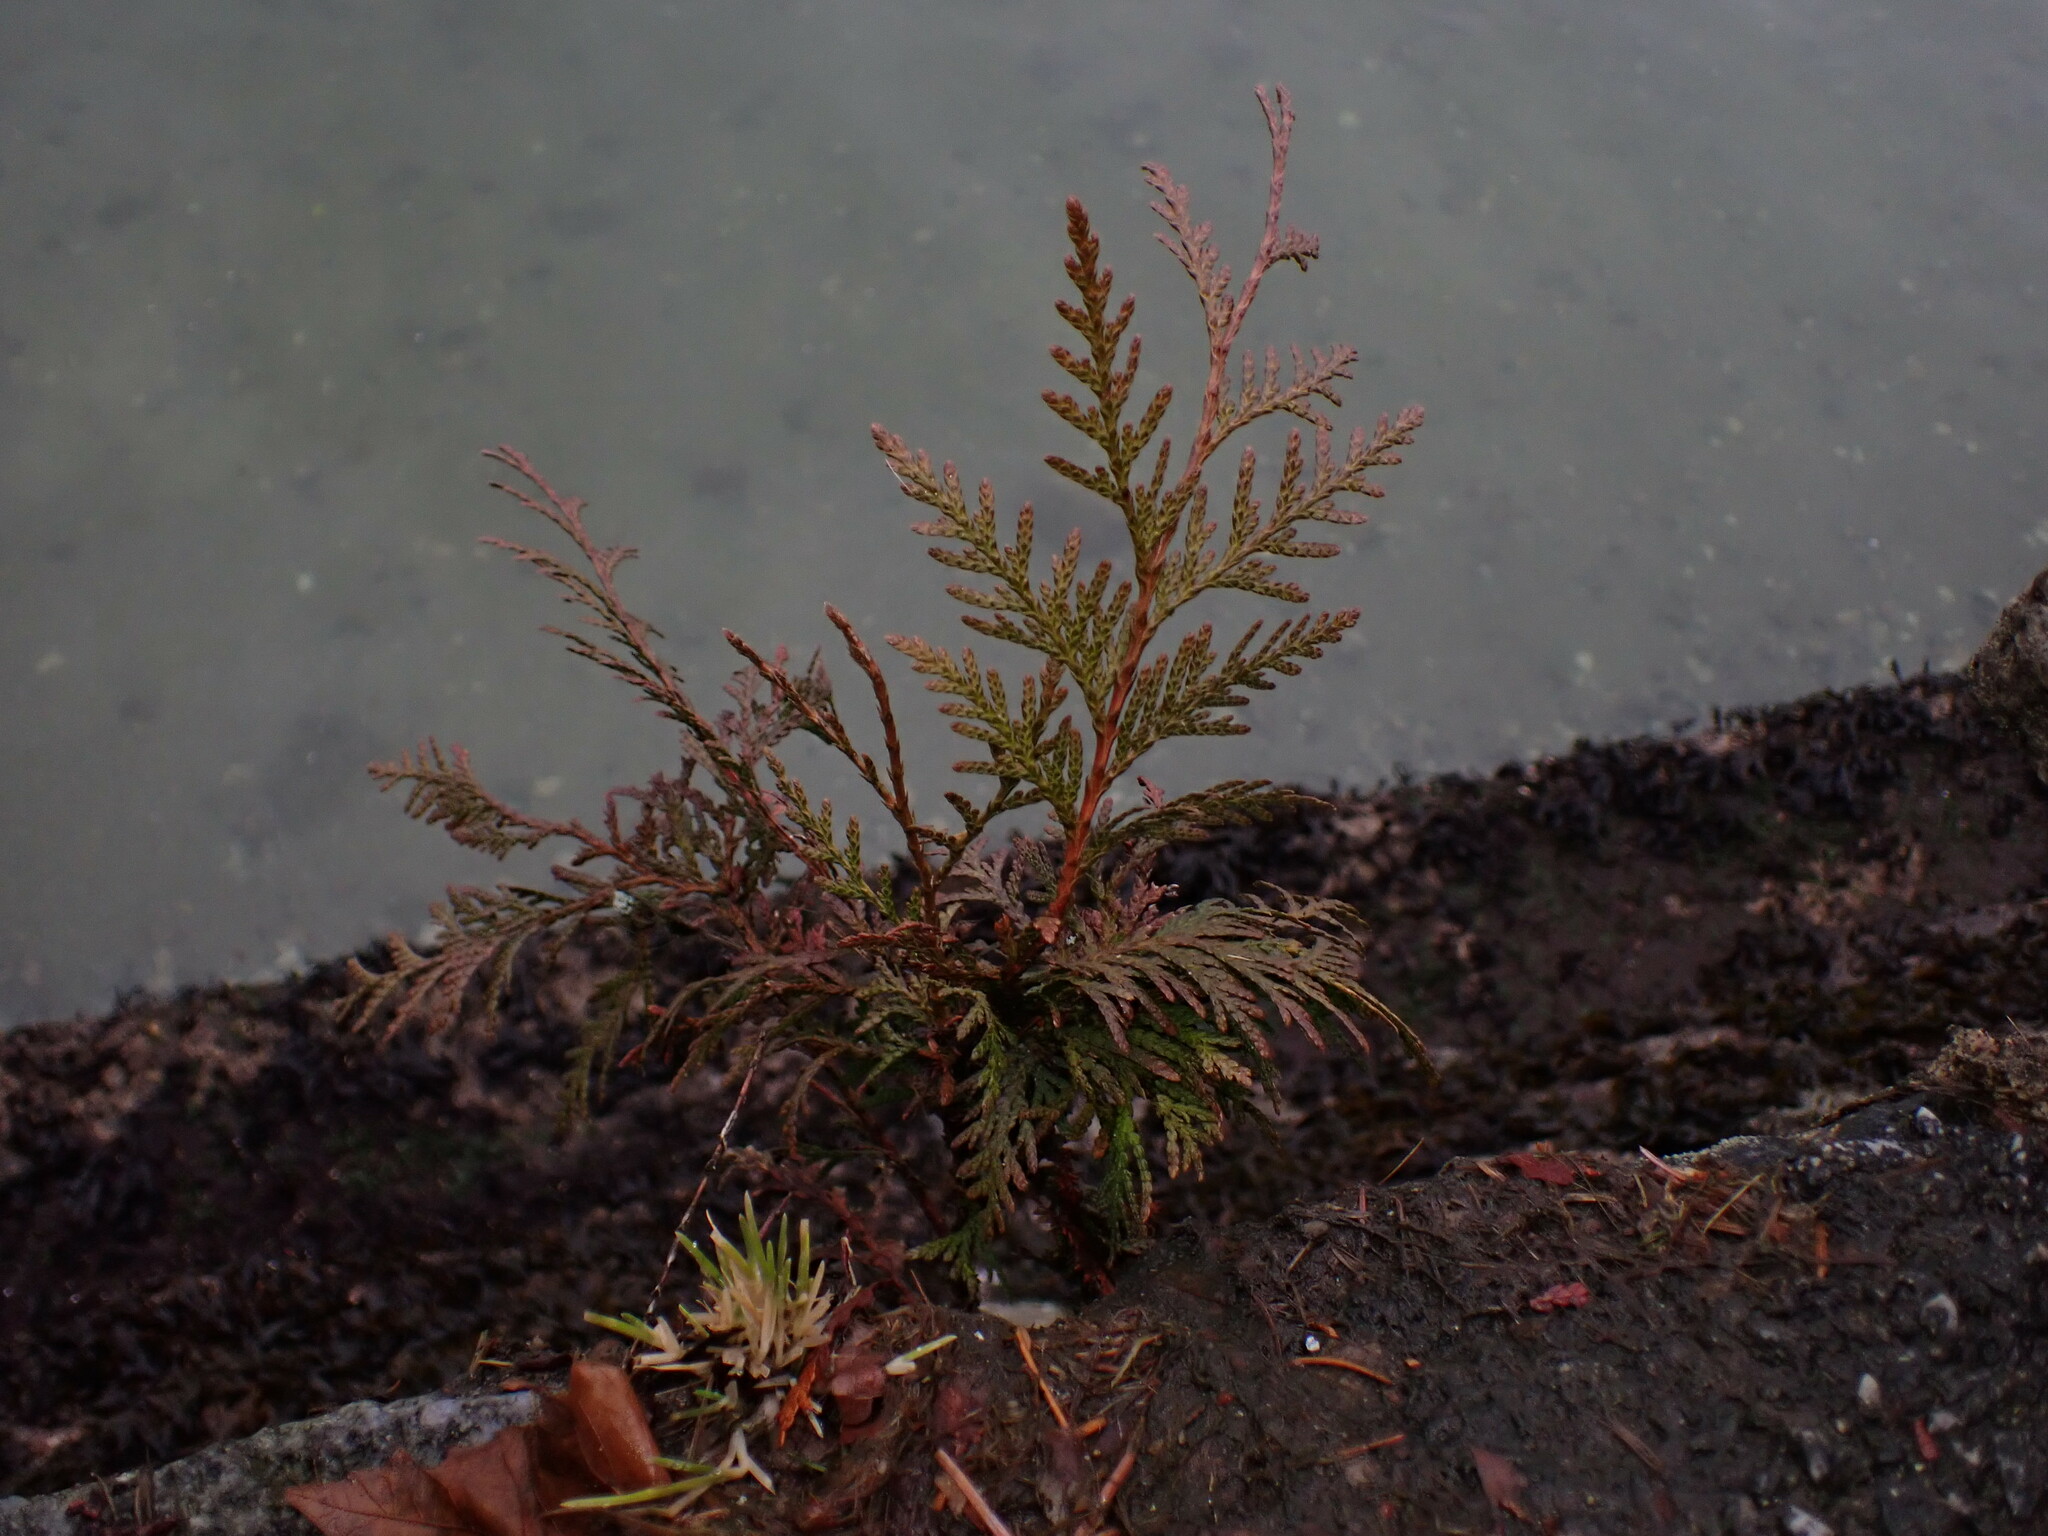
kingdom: Plantae
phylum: Tracheophyta
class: Pinopsida
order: Pinales
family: Cupressaceae
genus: Thuja
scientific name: Thuja plicata
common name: Western red-cedar
